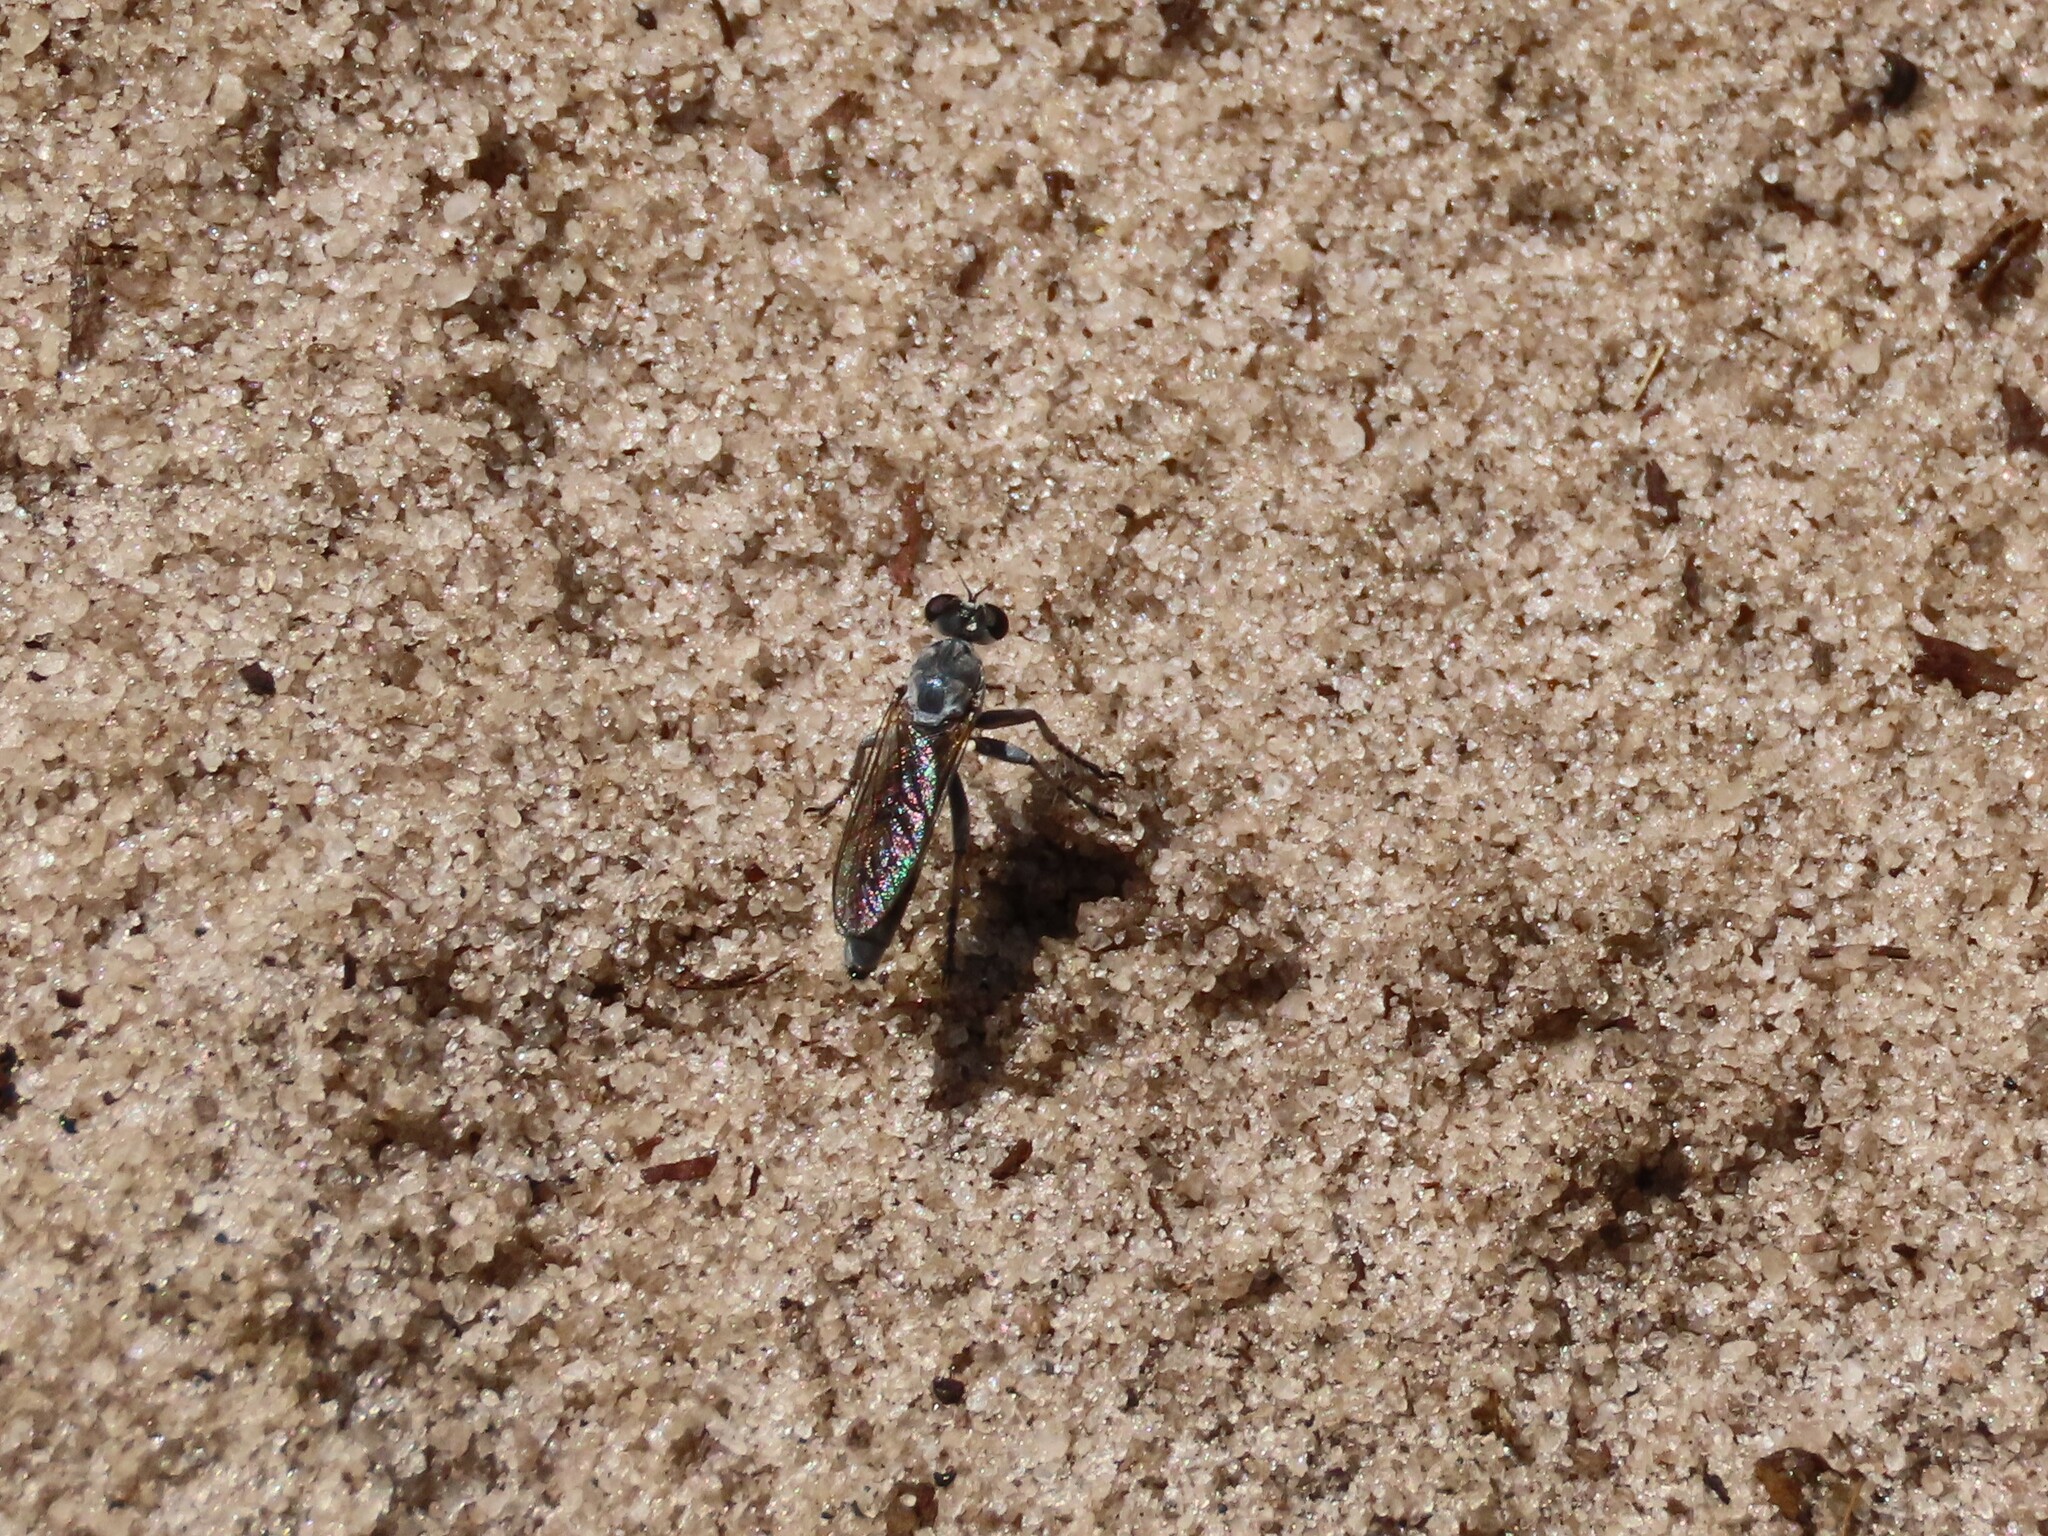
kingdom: Animalia
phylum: Arthropoda
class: Insecta
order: Diptera
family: Asilidae
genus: Stichopogon
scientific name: Stichopogon trifasciatus
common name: Three-banded robber fly
